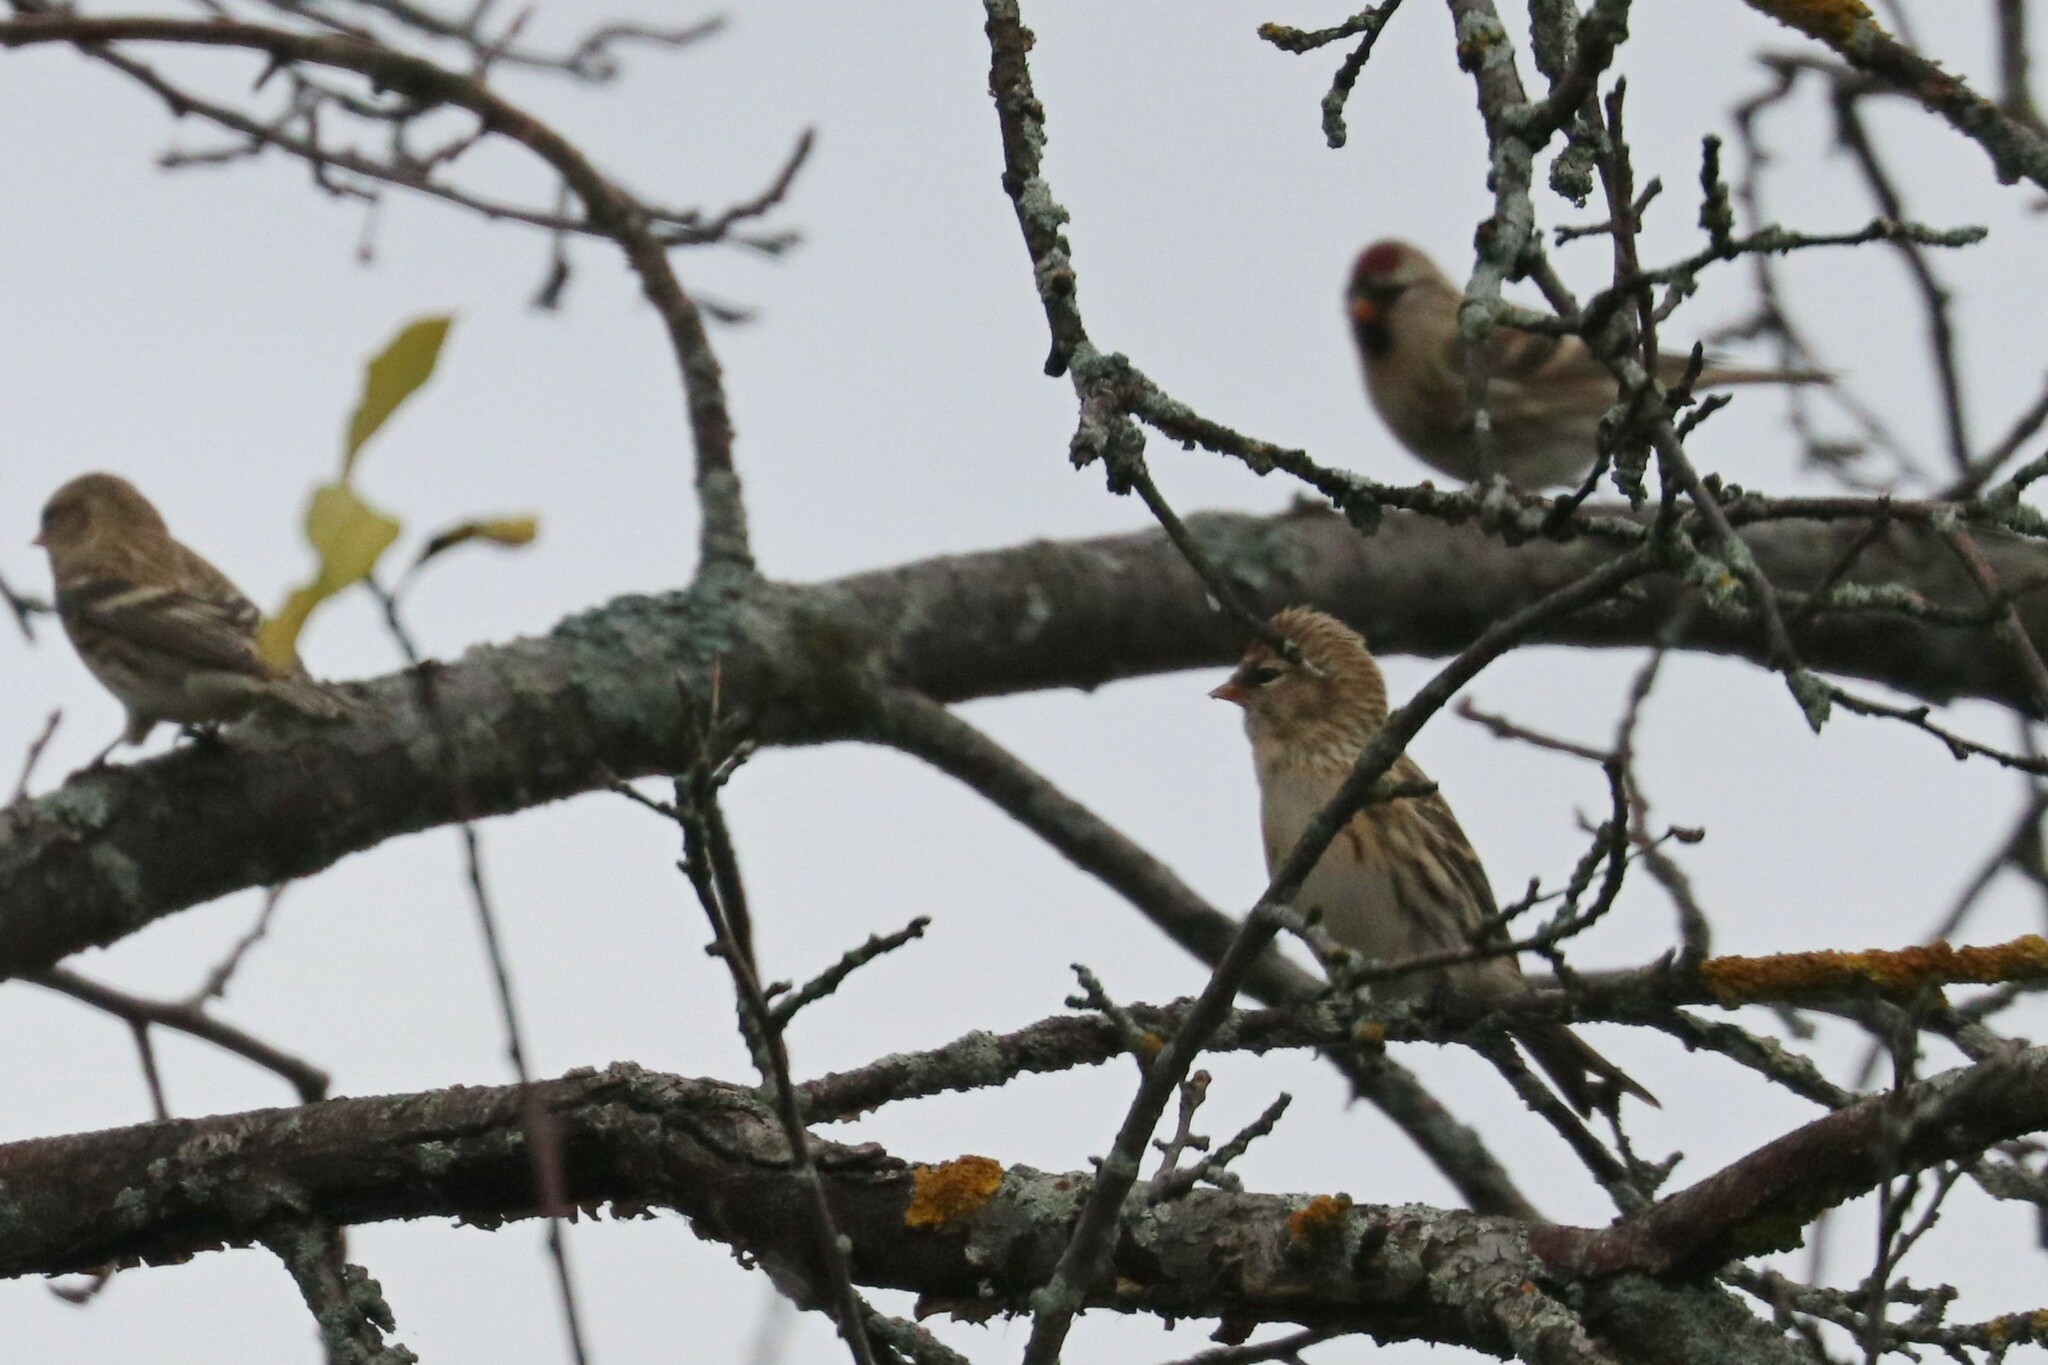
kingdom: Animalia
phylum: Chordata
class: Aves
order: Passeriformes
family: Fringillidae
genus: Acanthis
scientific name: Acanthis flammea
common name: Common redpoll
